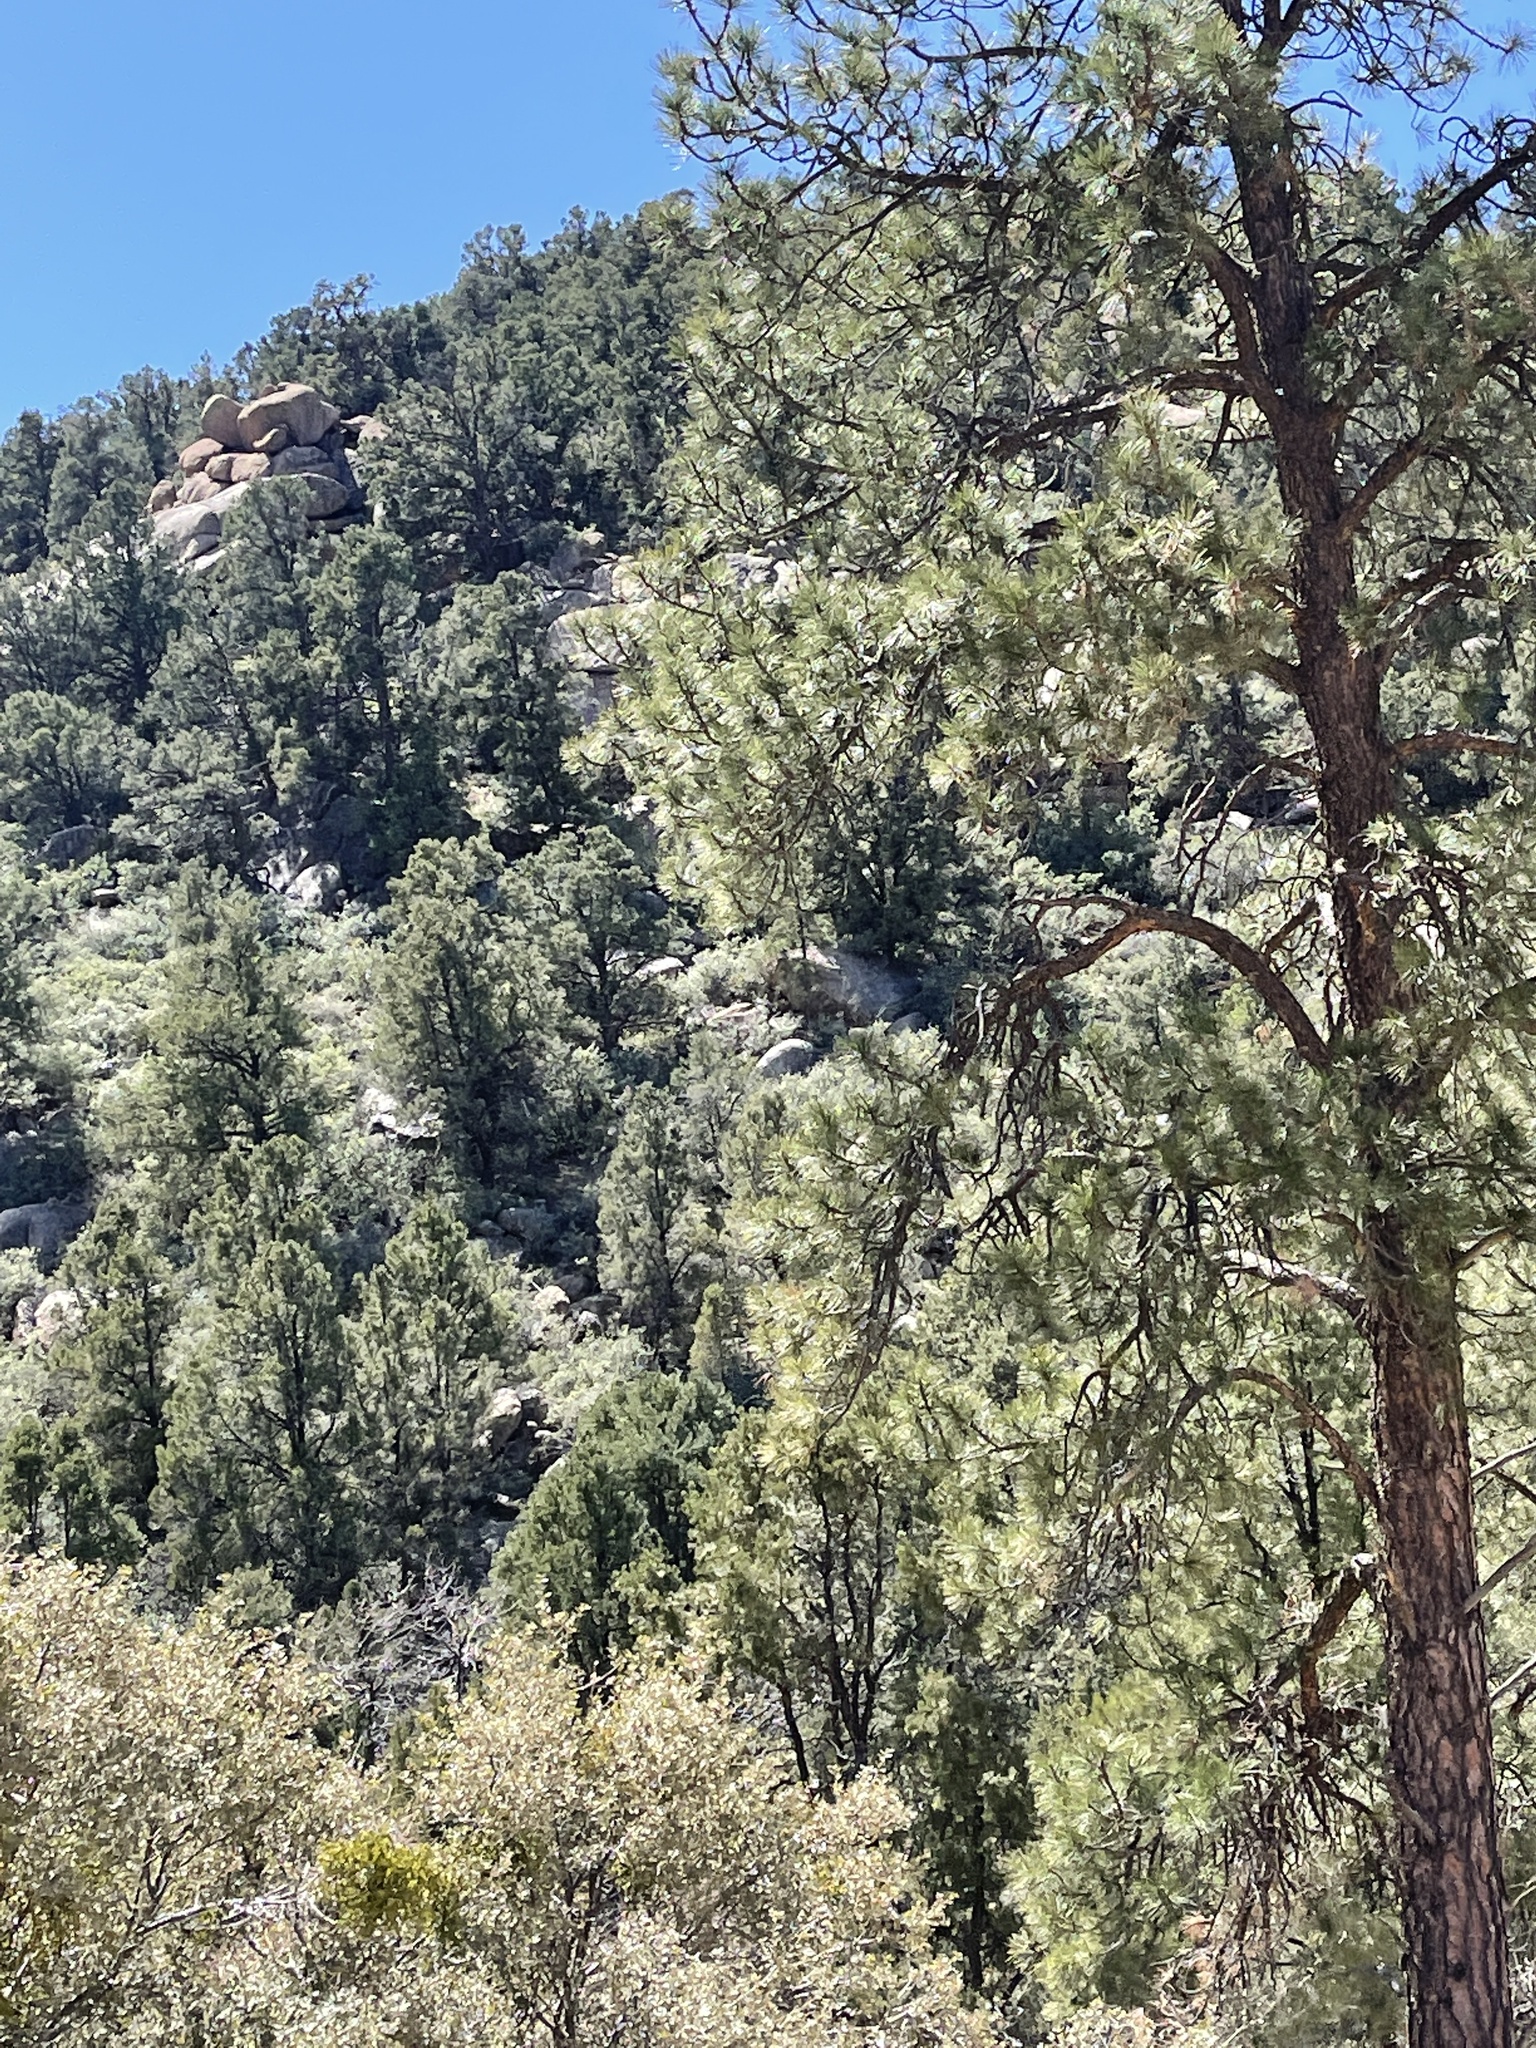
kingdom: Plantae
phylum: Tracheophyta
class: Pinopsida
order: Pinales
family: Pinaceae
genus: Pinus
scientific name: Pinus ponderosa
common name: Western yellow-pine
